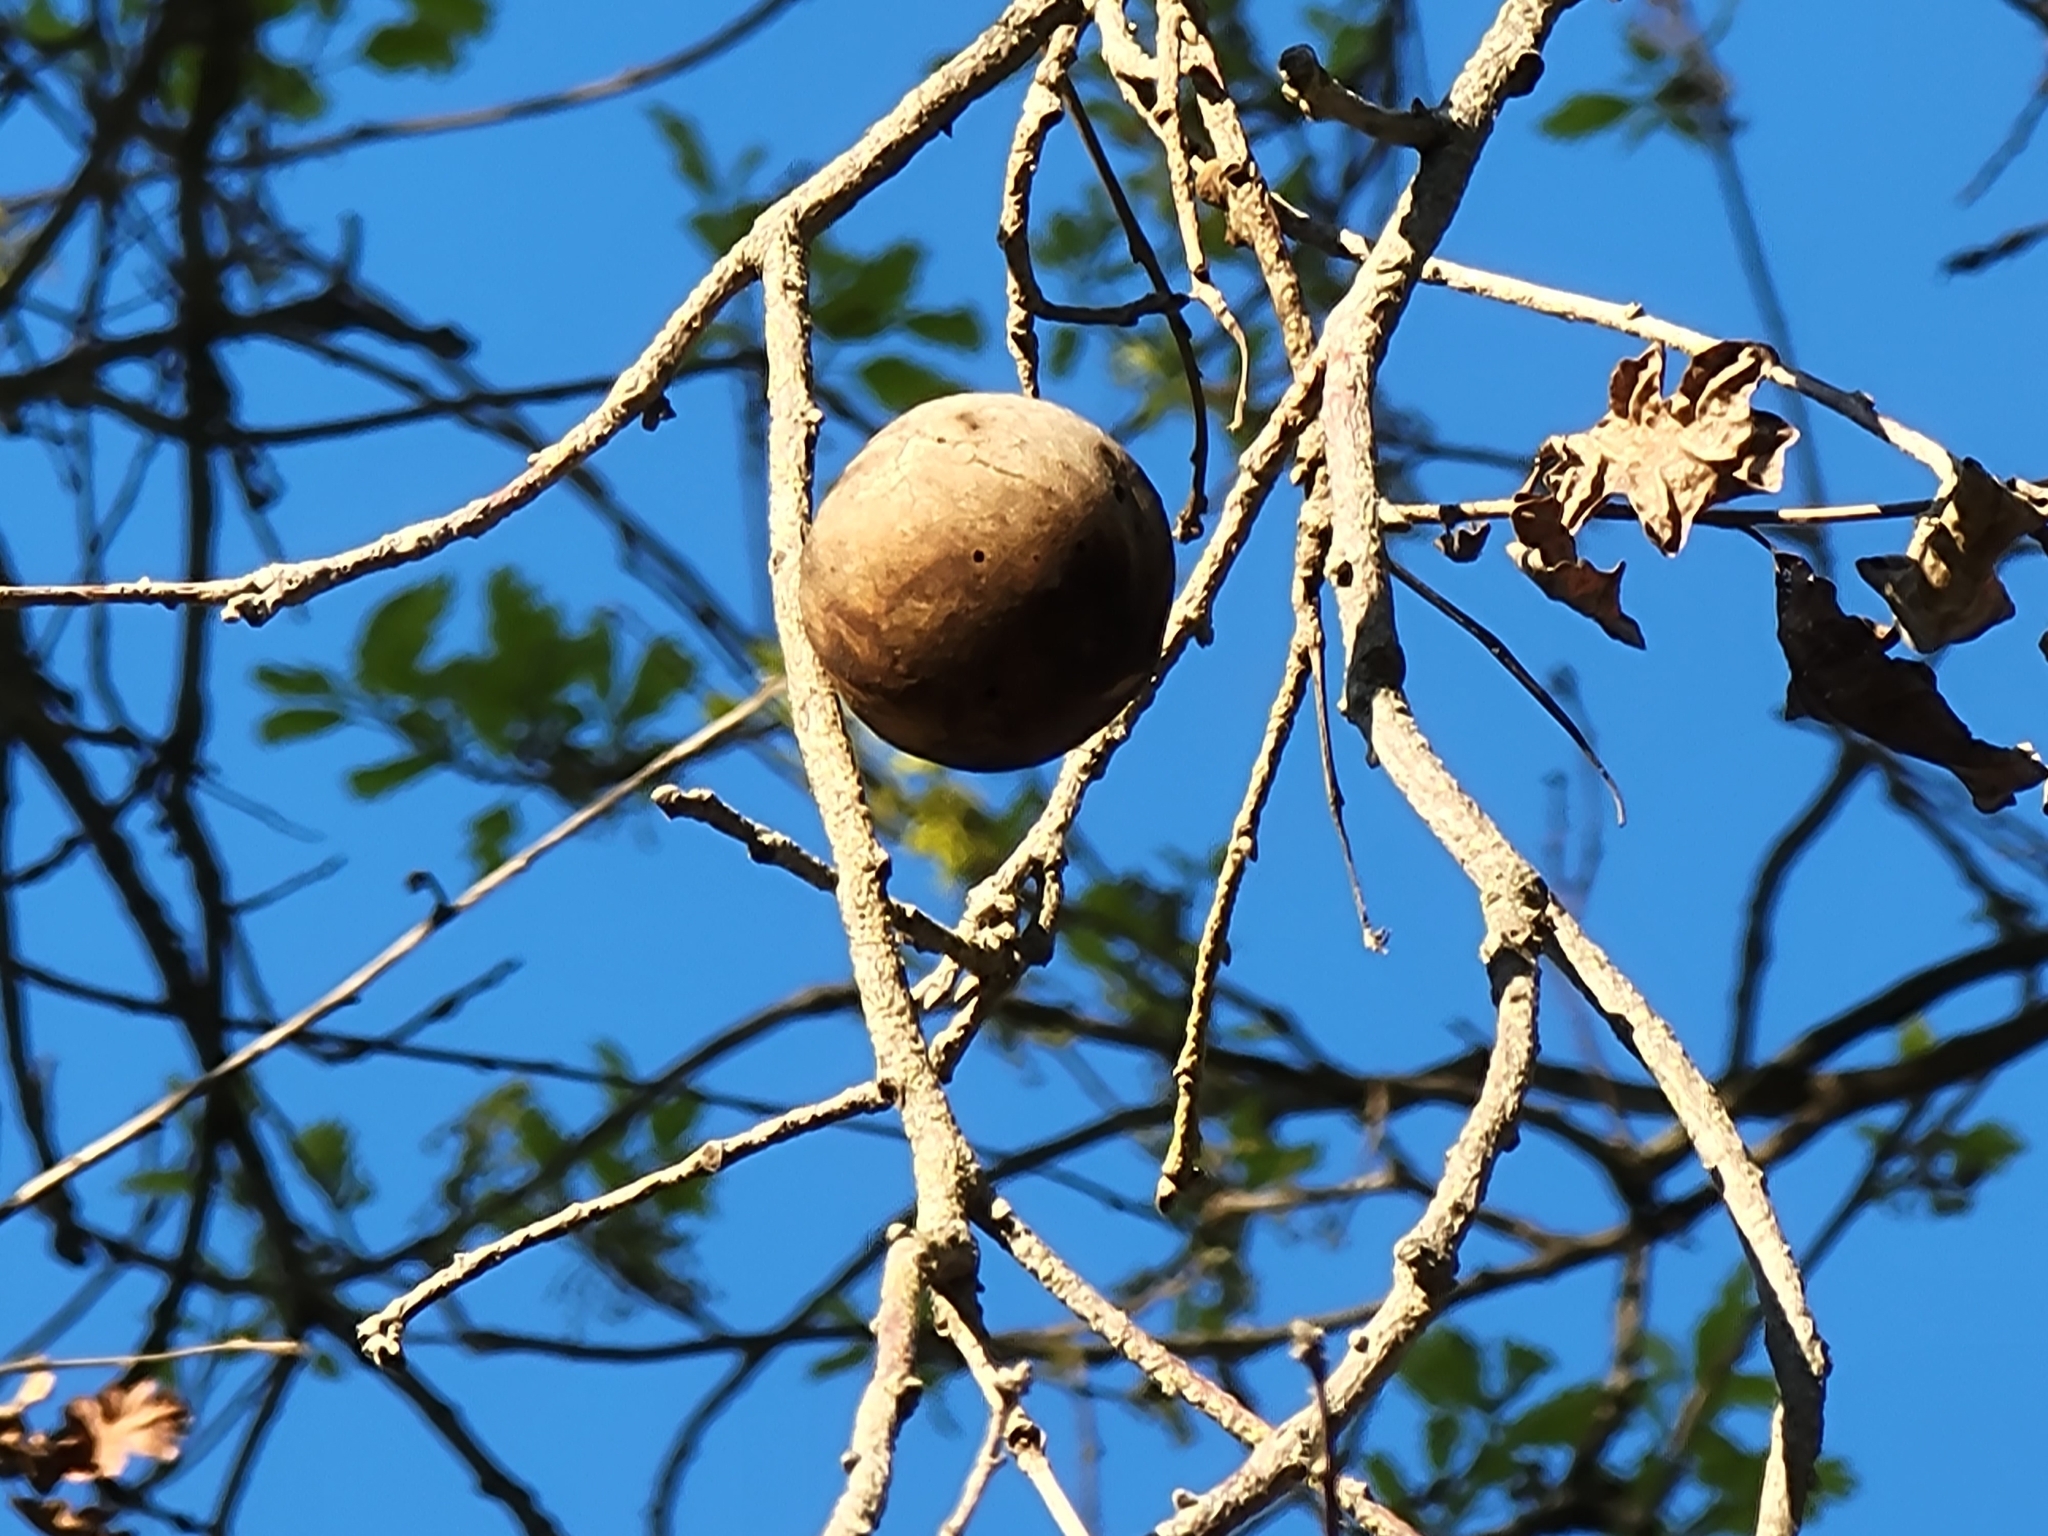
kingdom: Animalia
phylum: Arthropoda
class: Insecta
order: Hymenoptera
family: Cynipidae
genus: Andricus
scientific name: Andricus quercuscalifornicus
